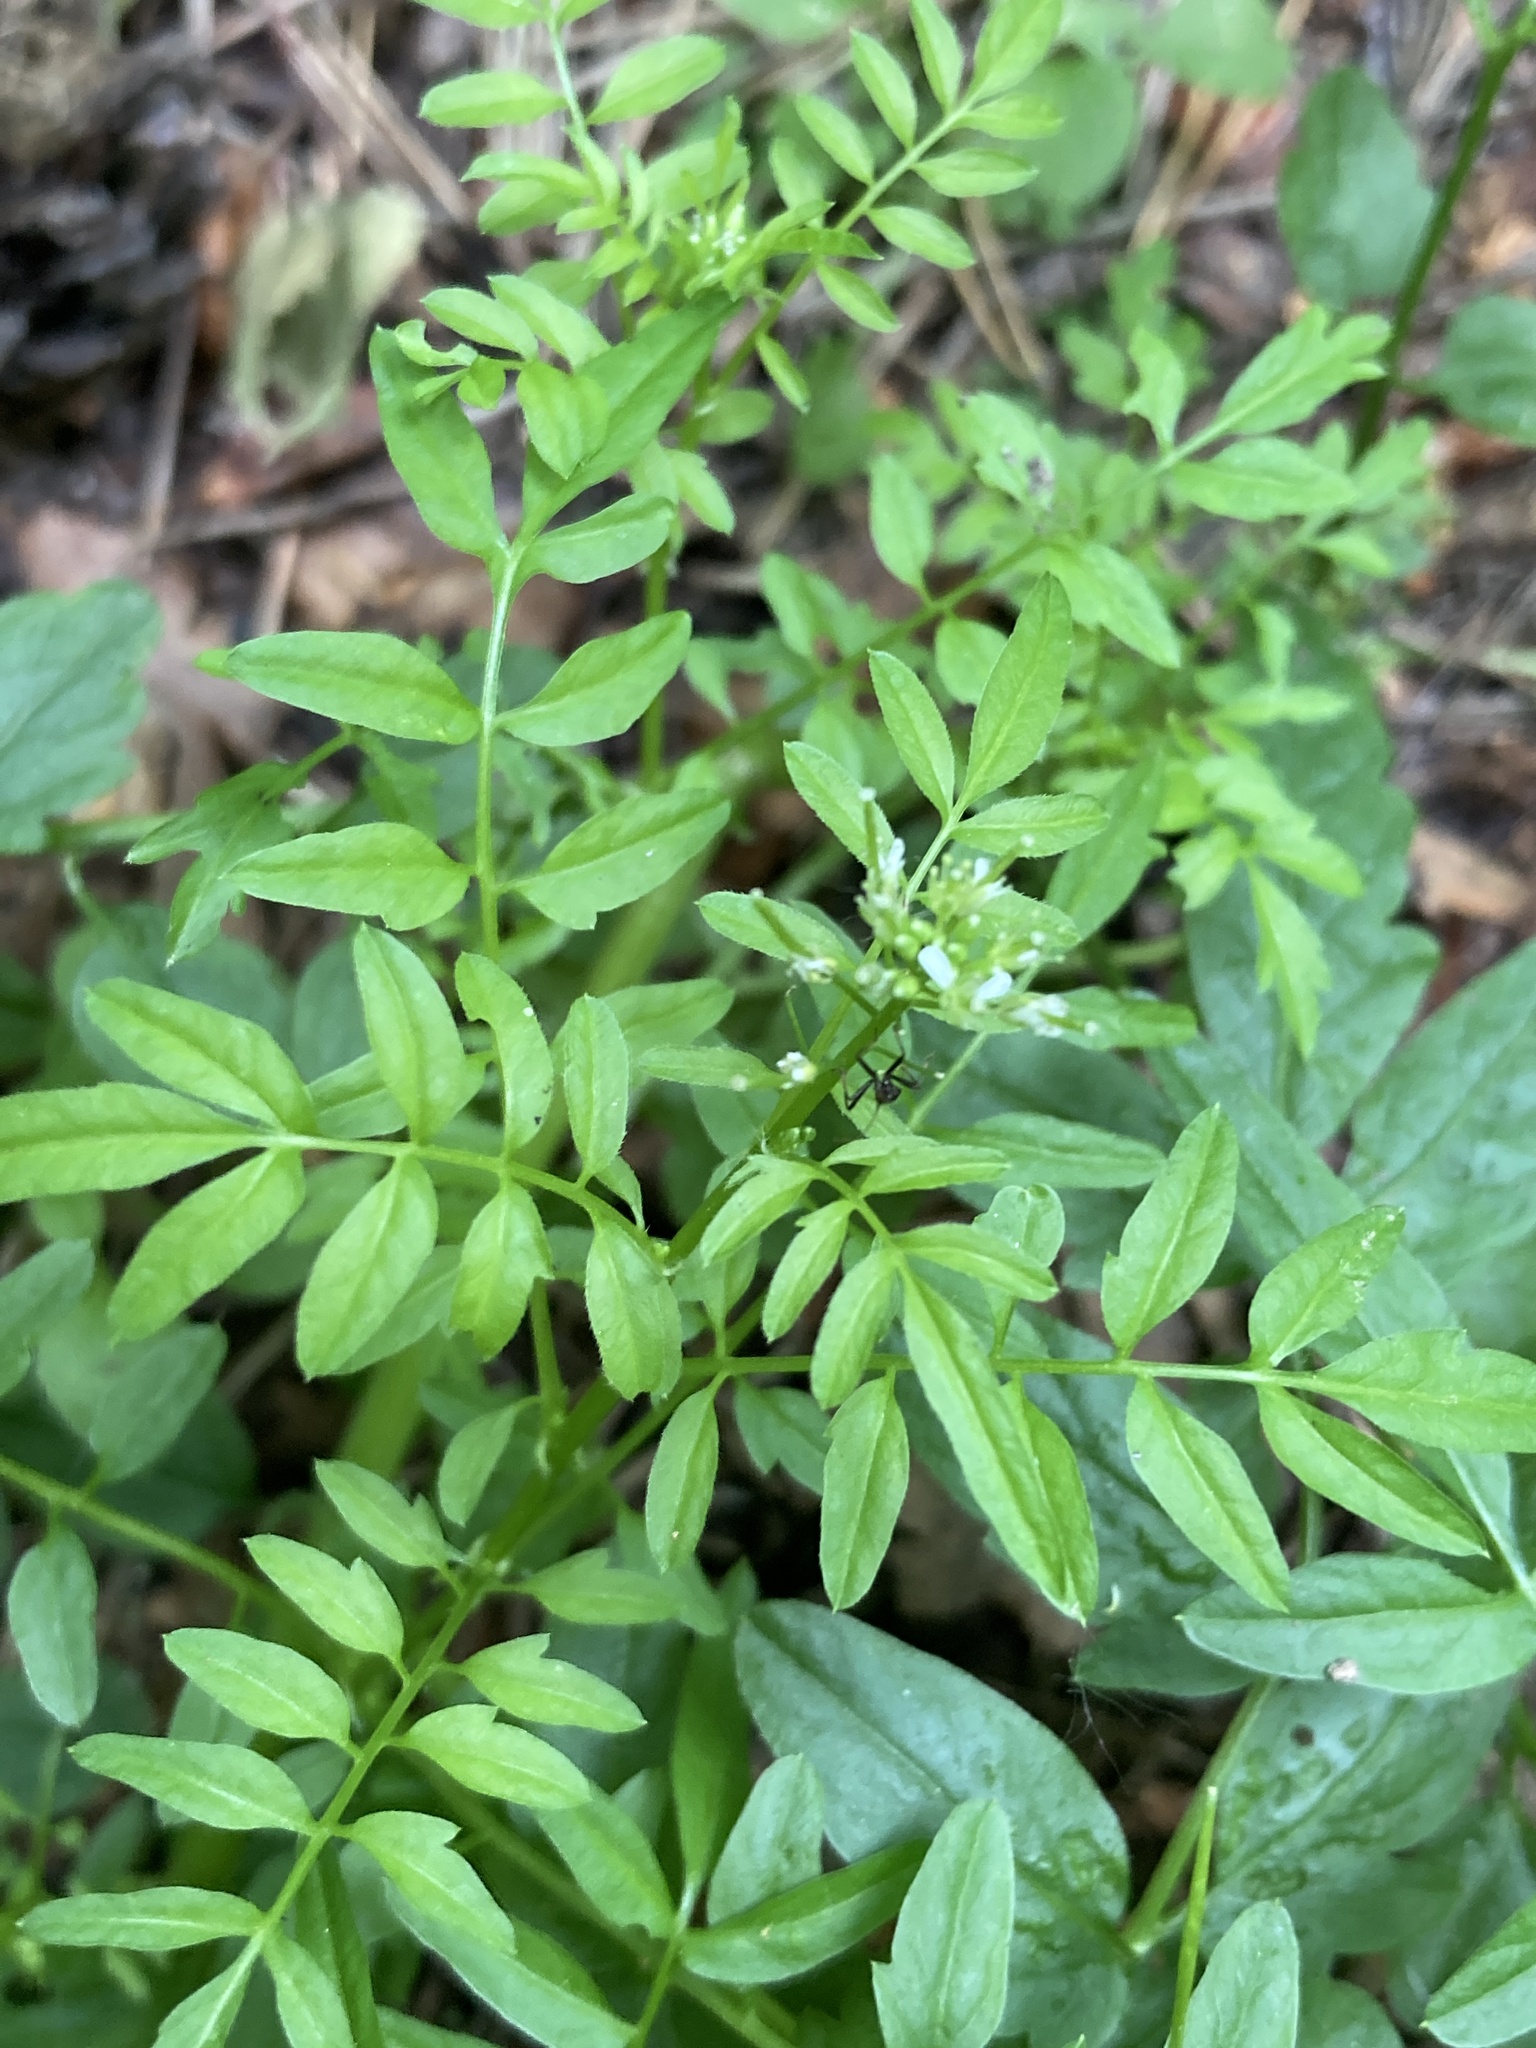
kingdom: Plantae
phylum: Tracheophyta
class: Magnoliopsida
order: Brassicales
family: Brassicaceae
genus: Cardamine
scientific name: Cardamine impatiens
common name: Narrow-leaved bitter-cress
